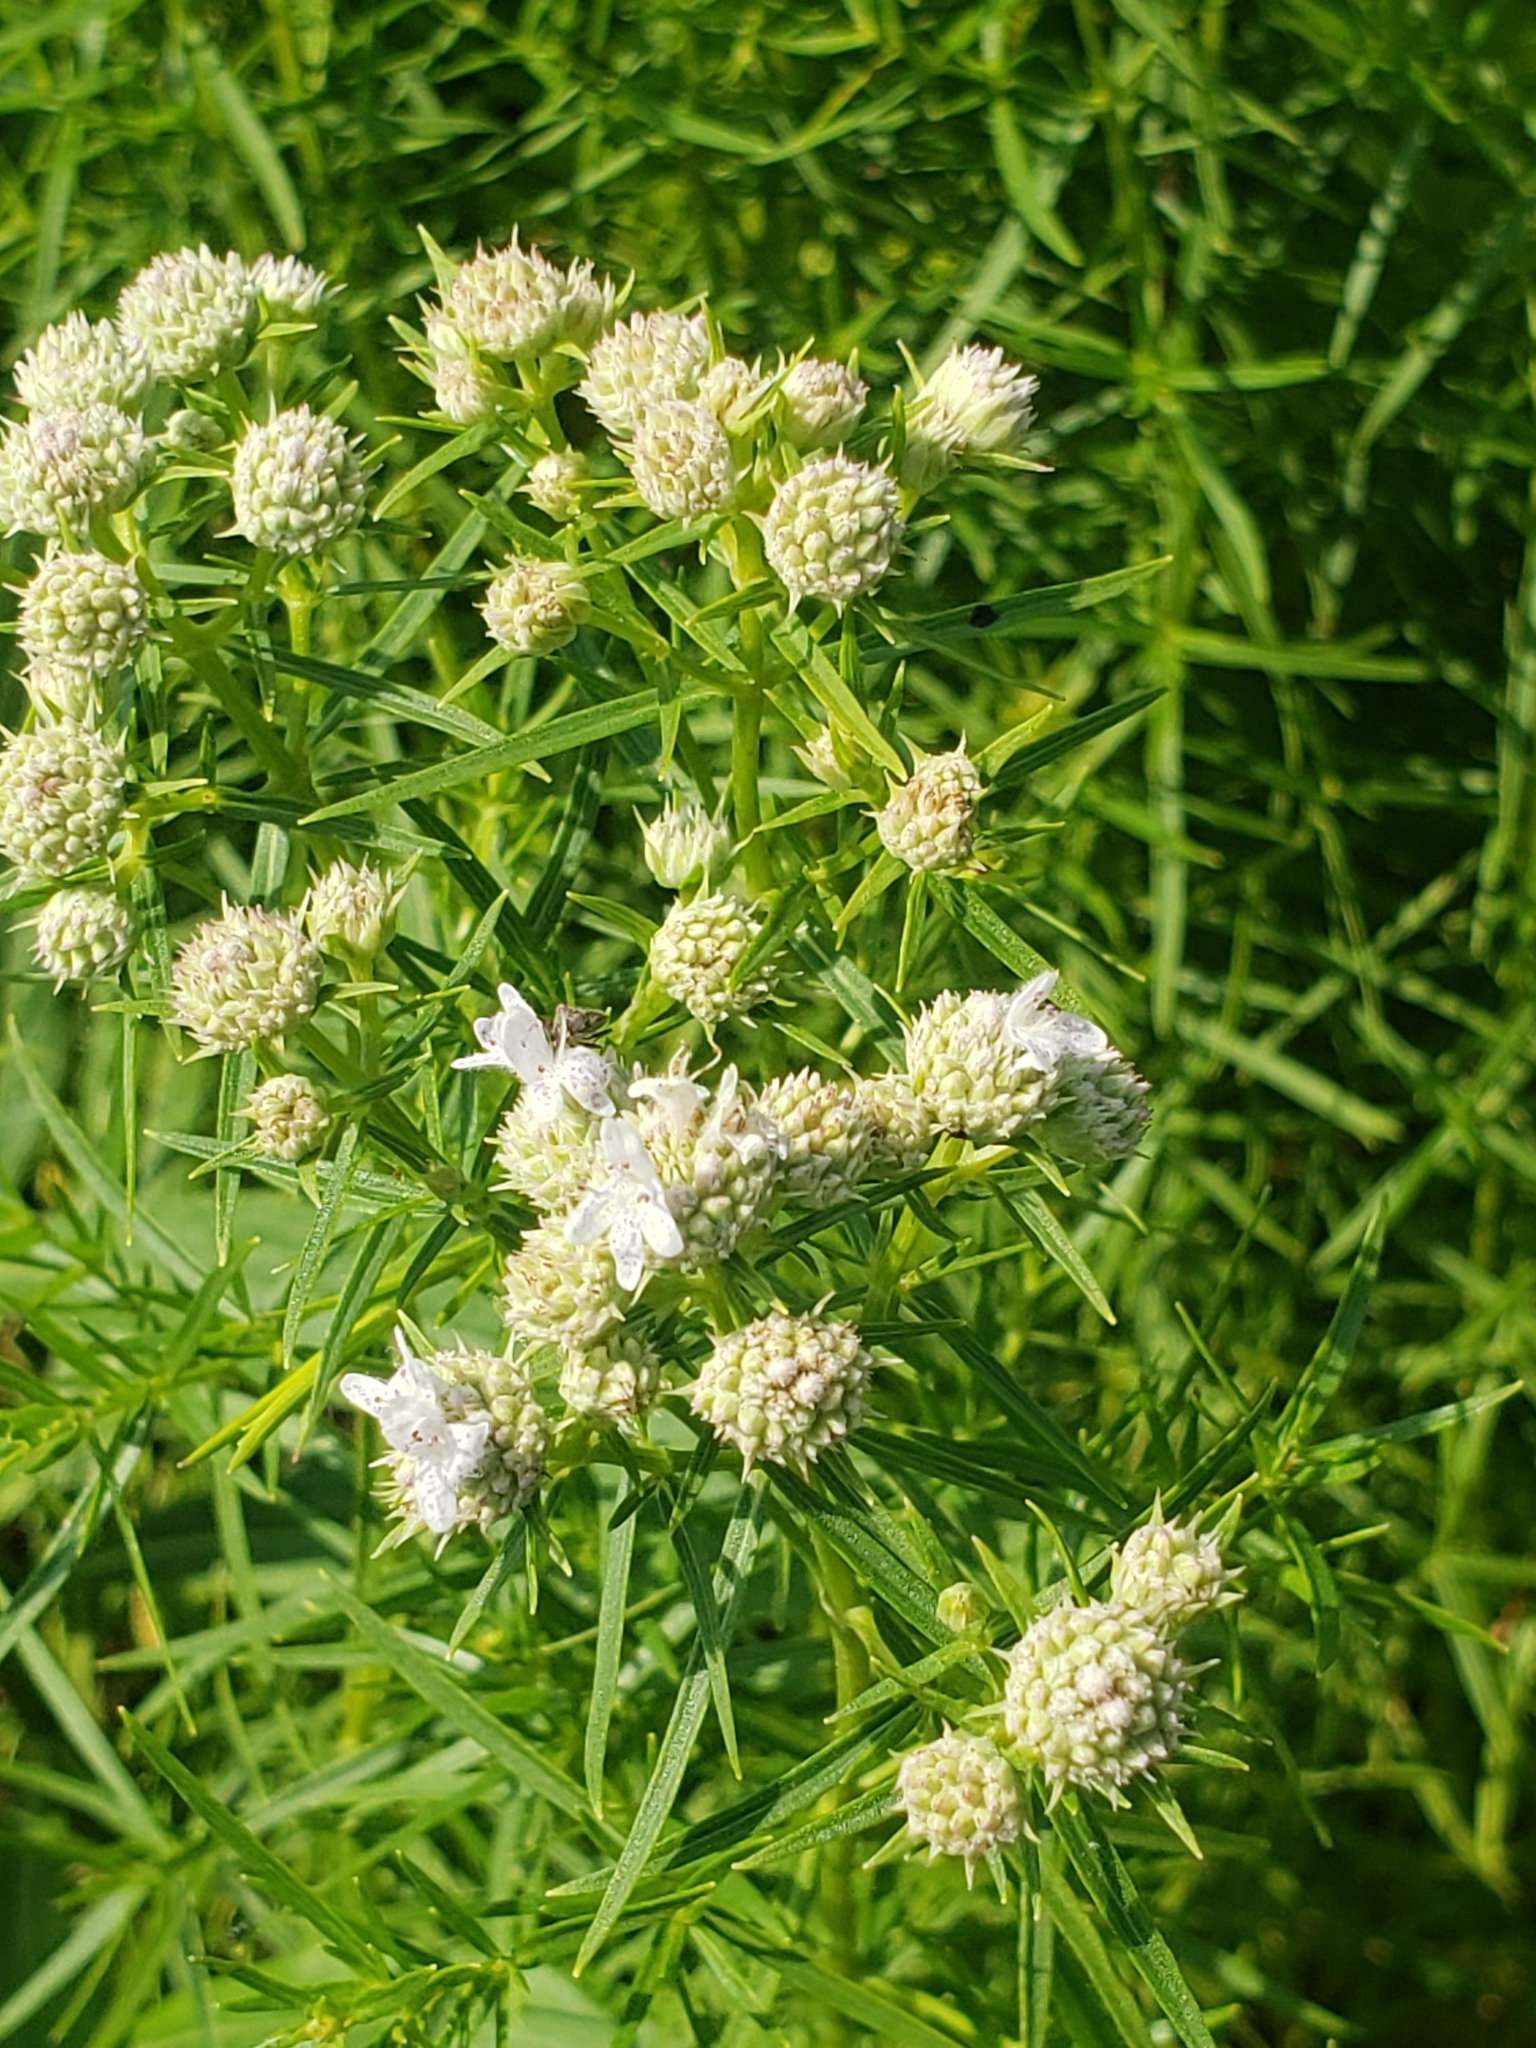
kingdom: Plantae
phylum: Tracheophyta
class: Magnoliopsida
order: Lamiales
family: Lamiaceae
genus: Pycnanthemum
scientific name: Pycnanthemum tenuifolium
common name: Narrow-leaf mountain-mint
